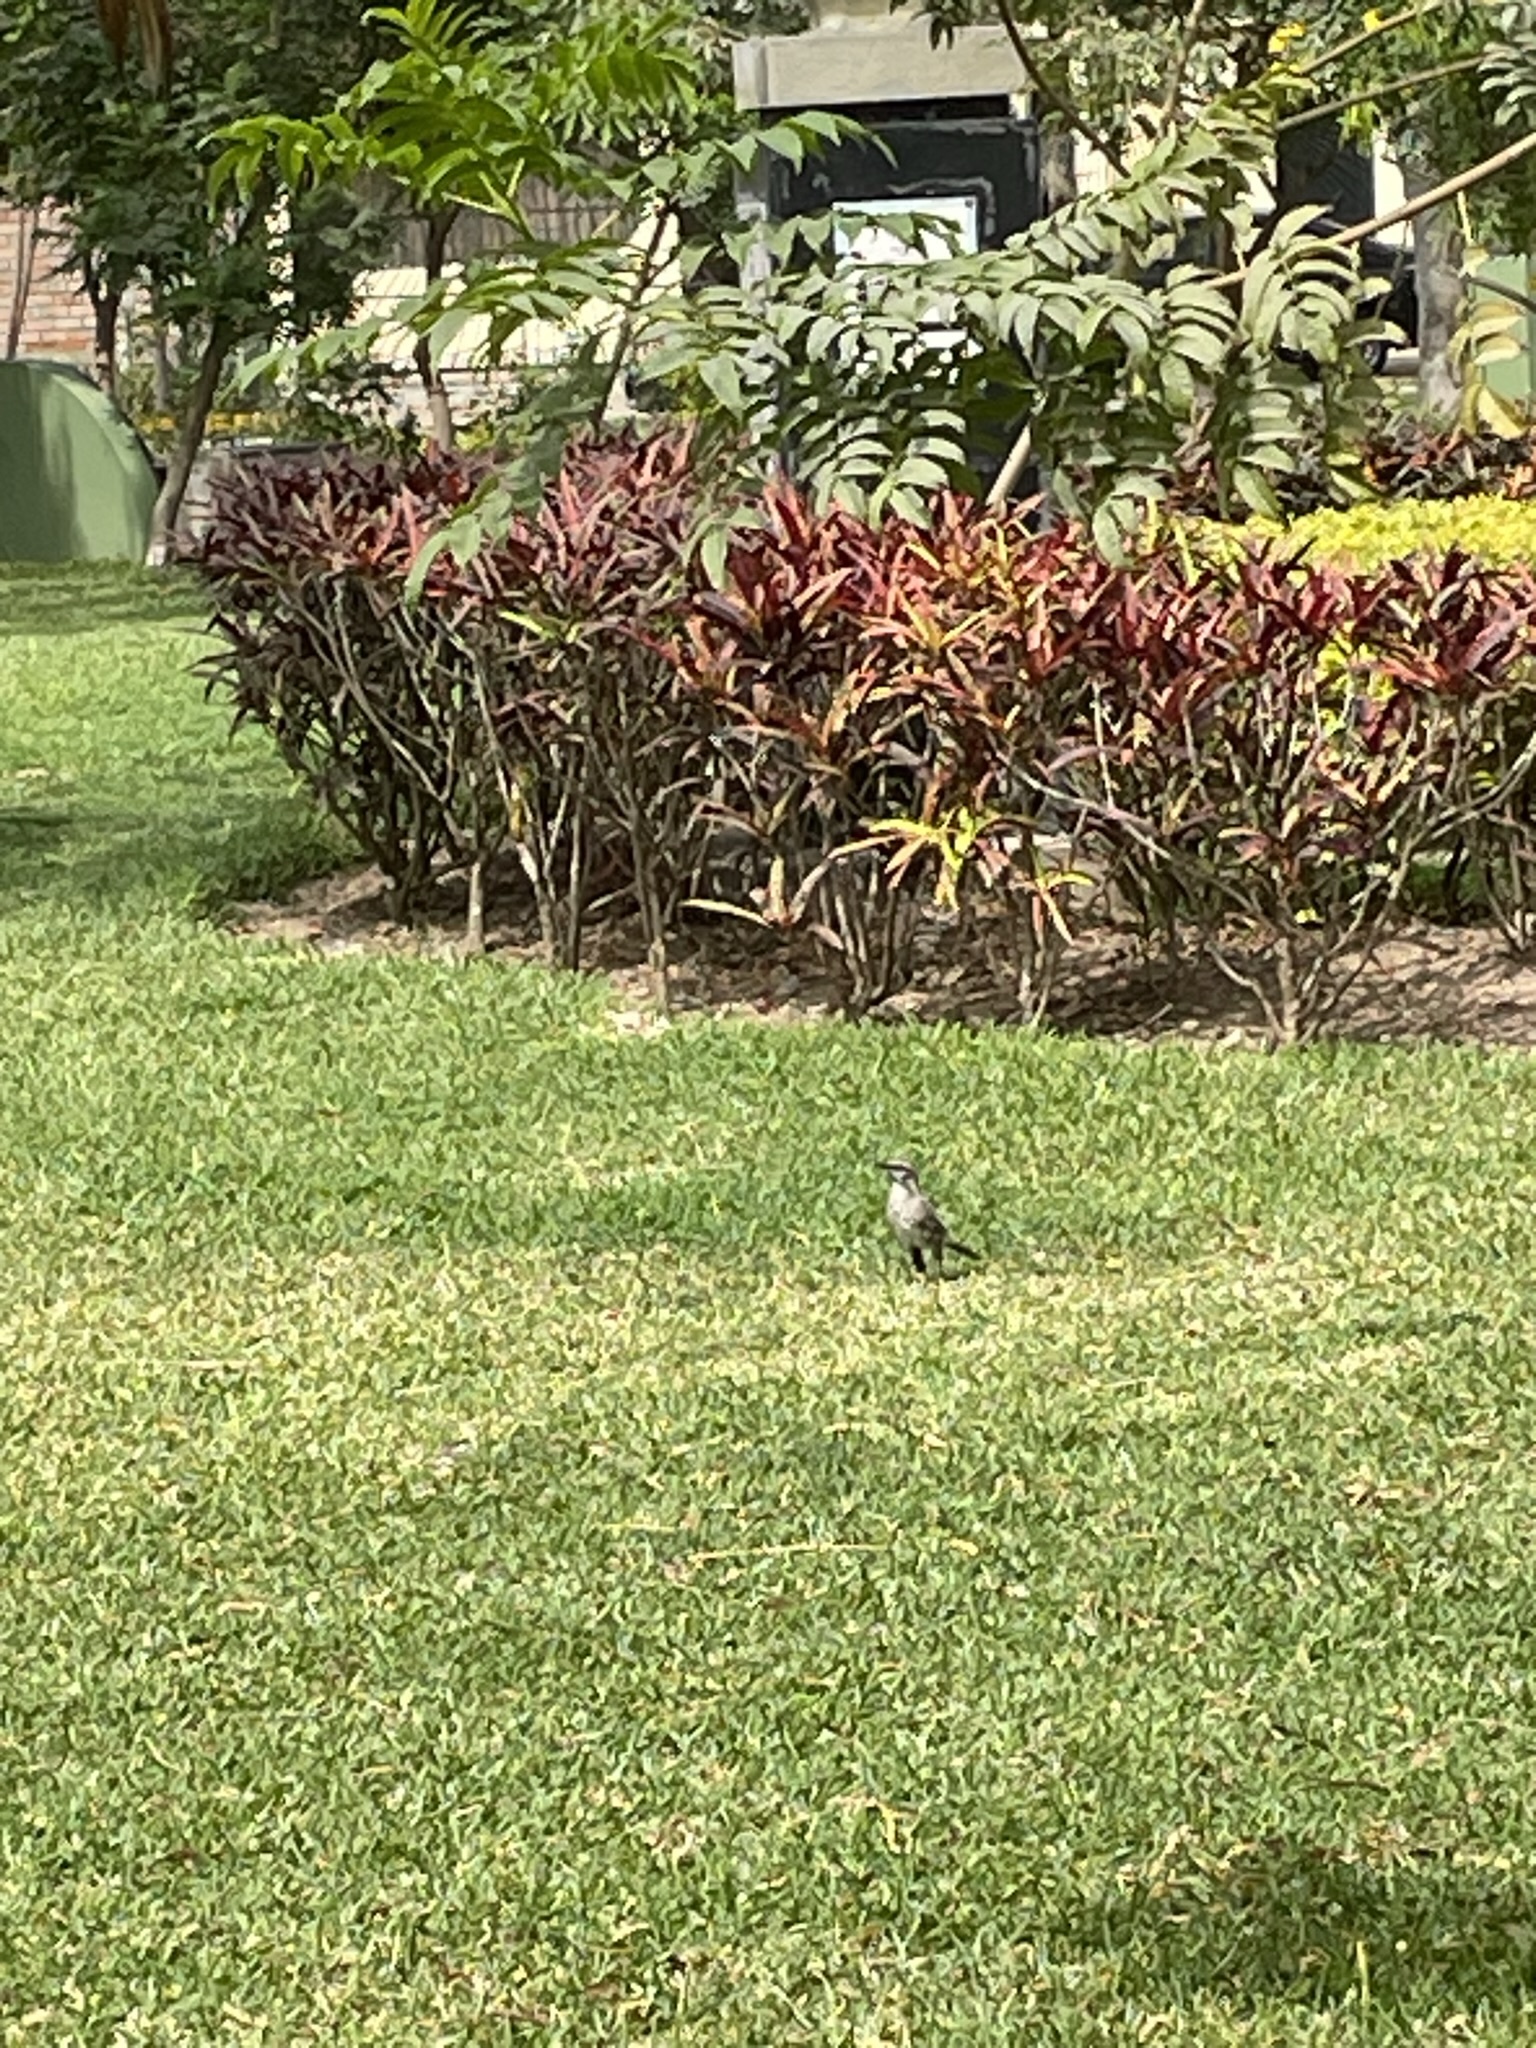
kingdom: Animalia
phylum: Chordata
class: Aves
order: Passeriformes
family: Mimidae
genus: Mimus
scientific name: Mimus longicaudatus
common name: Long-tailed mockingbird
